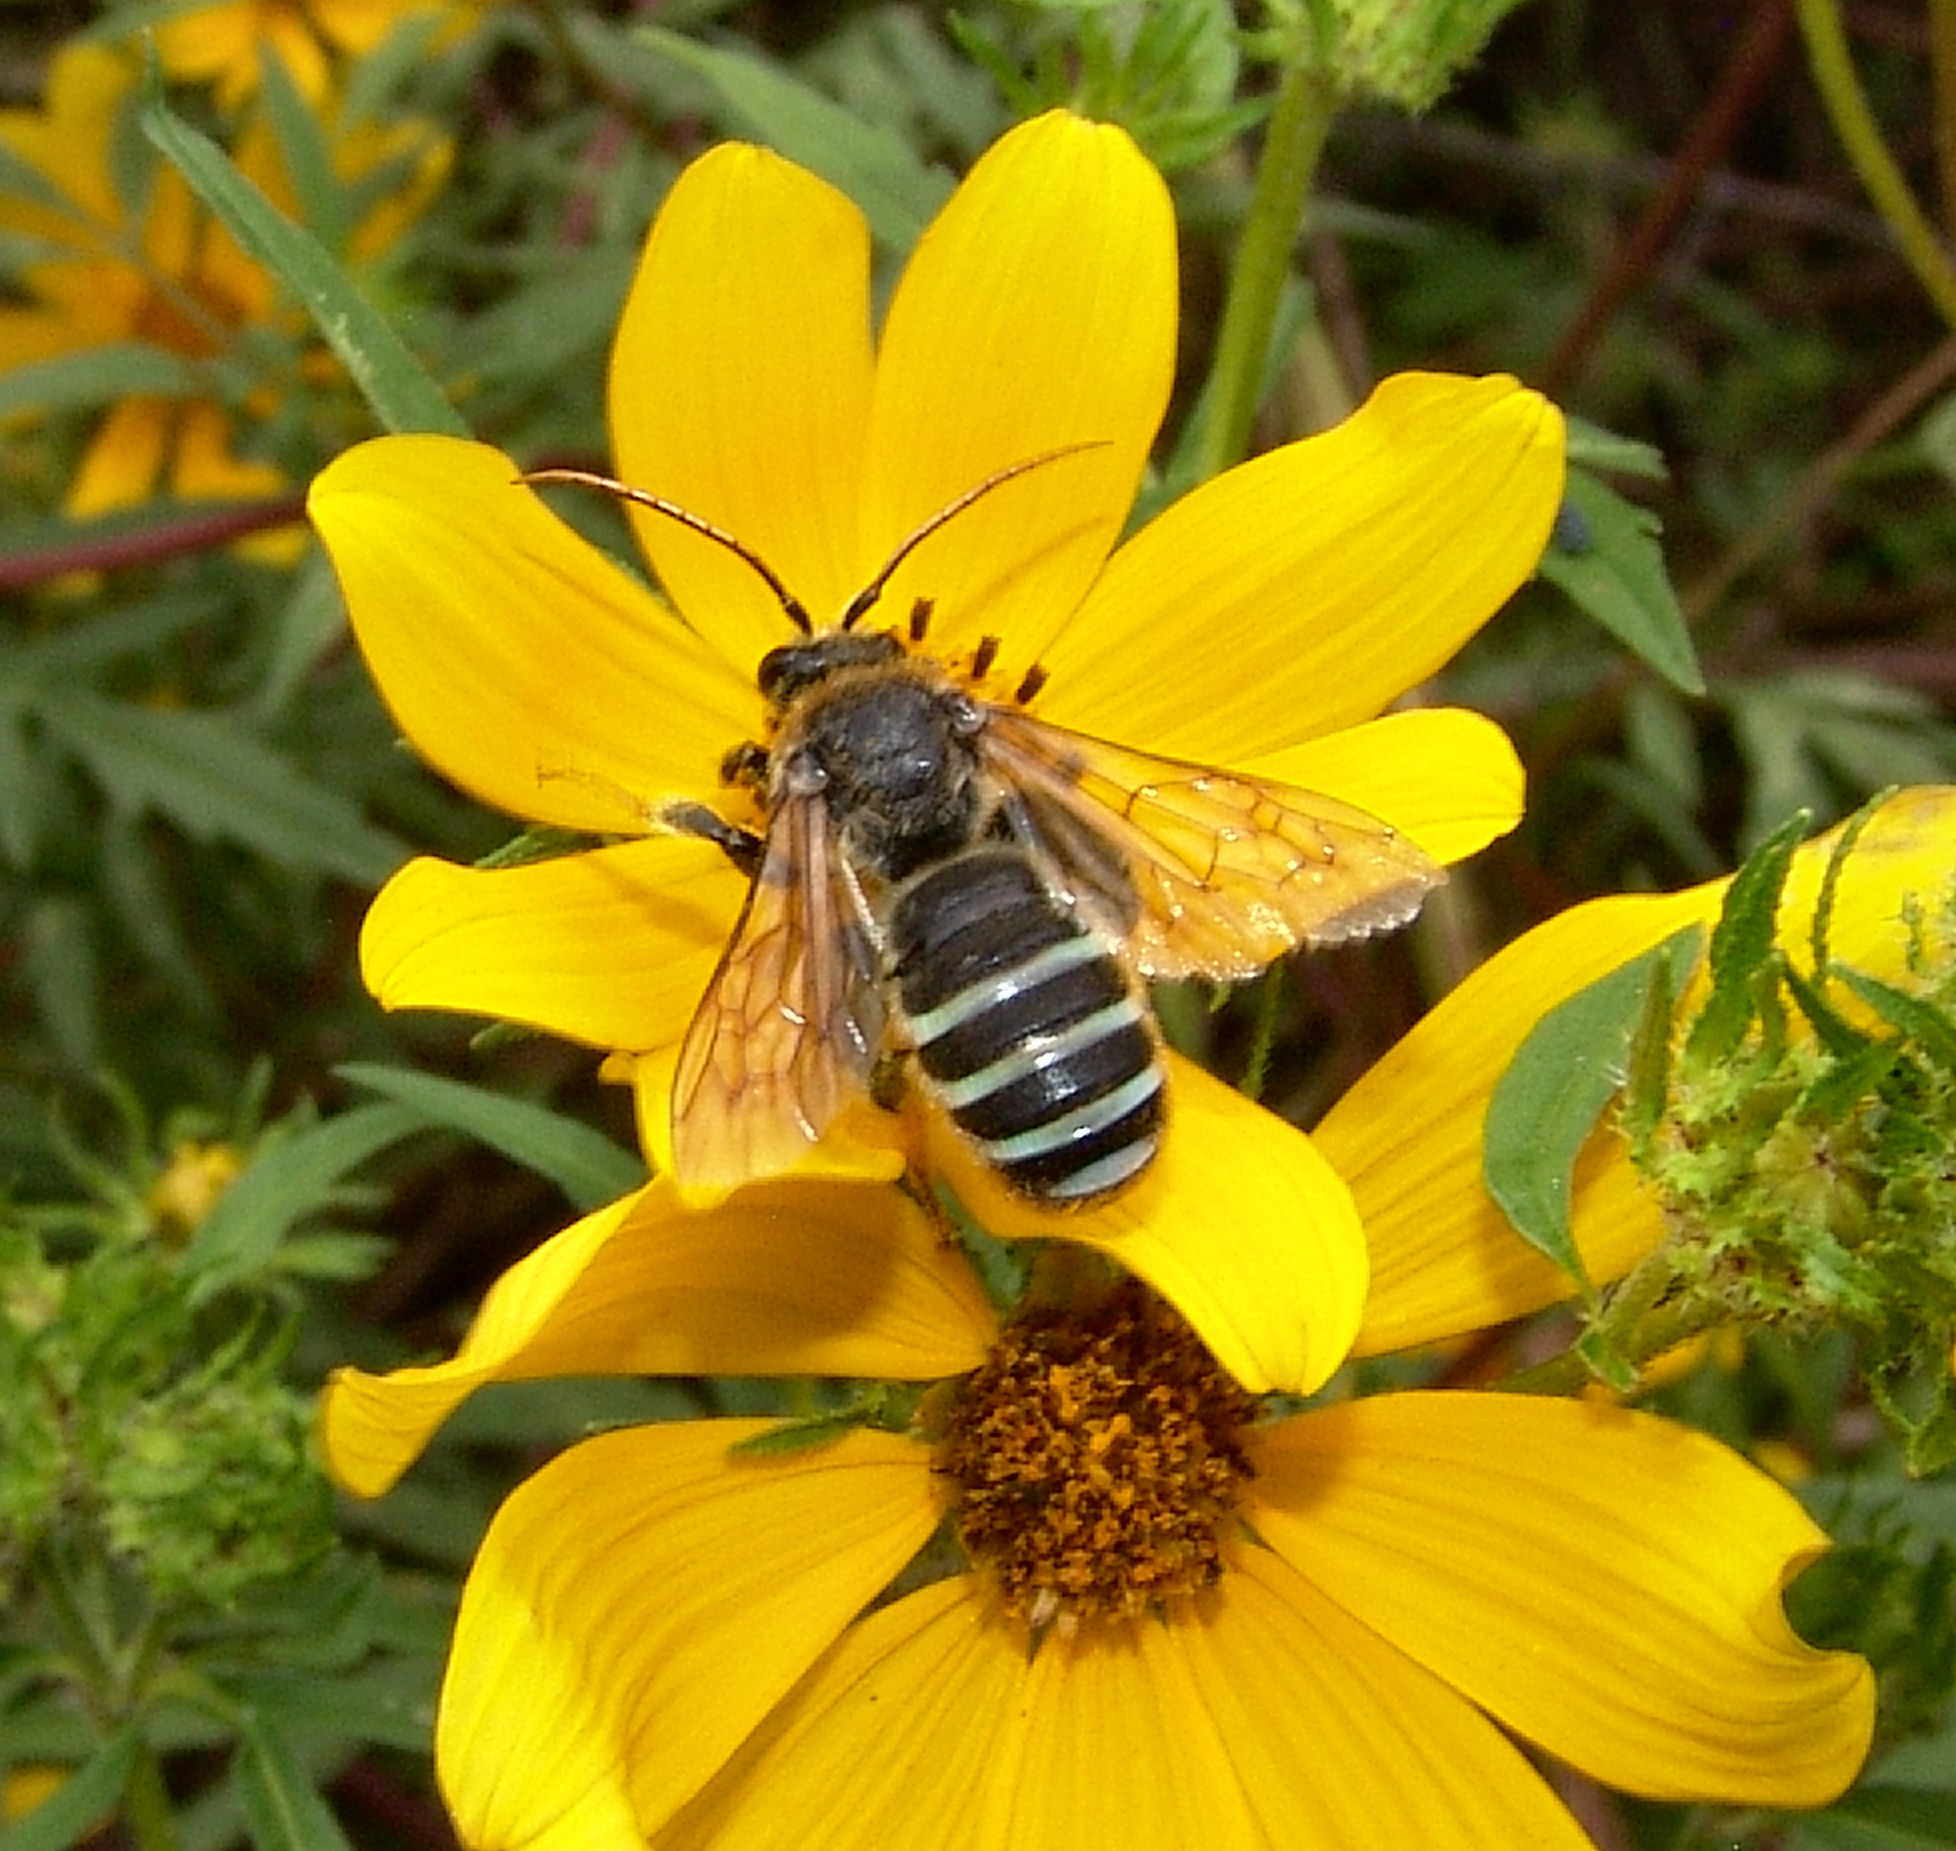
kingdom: Plantae
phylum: Tracheophyta
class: Magnoliopsida
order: Asterales
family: Asteraceae
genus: Bidens
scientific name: Bidens aristosa
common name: Western tickseed
